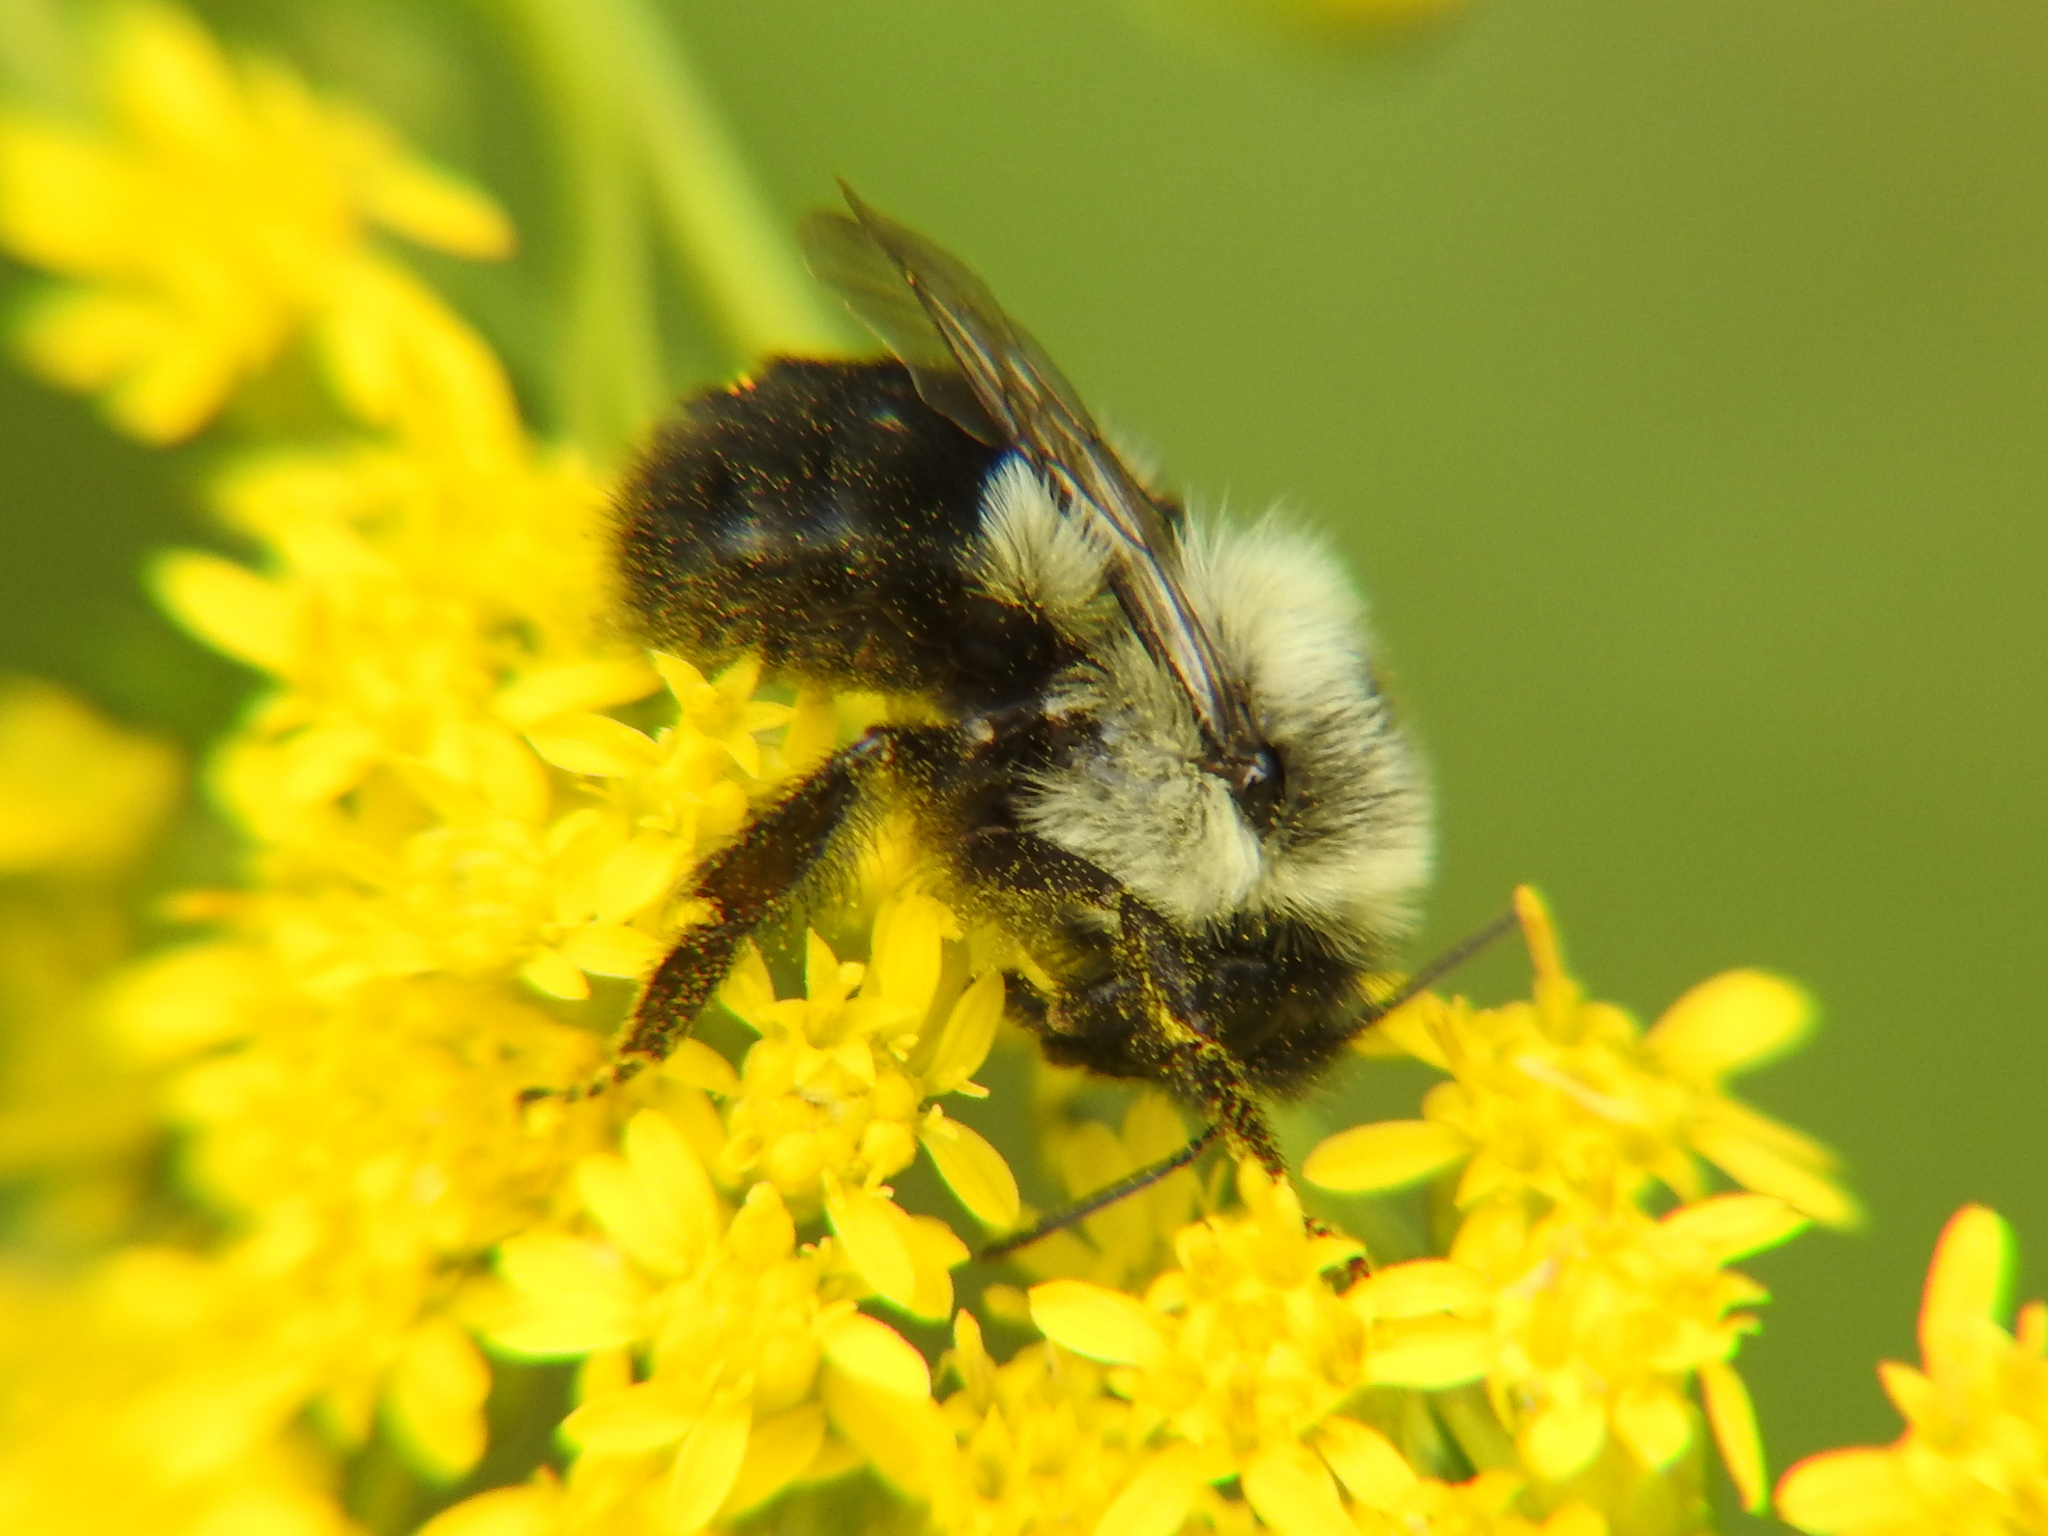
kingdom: Animalia
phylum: Arthropoda
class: Insecta
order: Hymenoptera
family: Apidae
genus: Bombus
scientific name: Bombus impatiens
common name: Common eastern bumble bee
